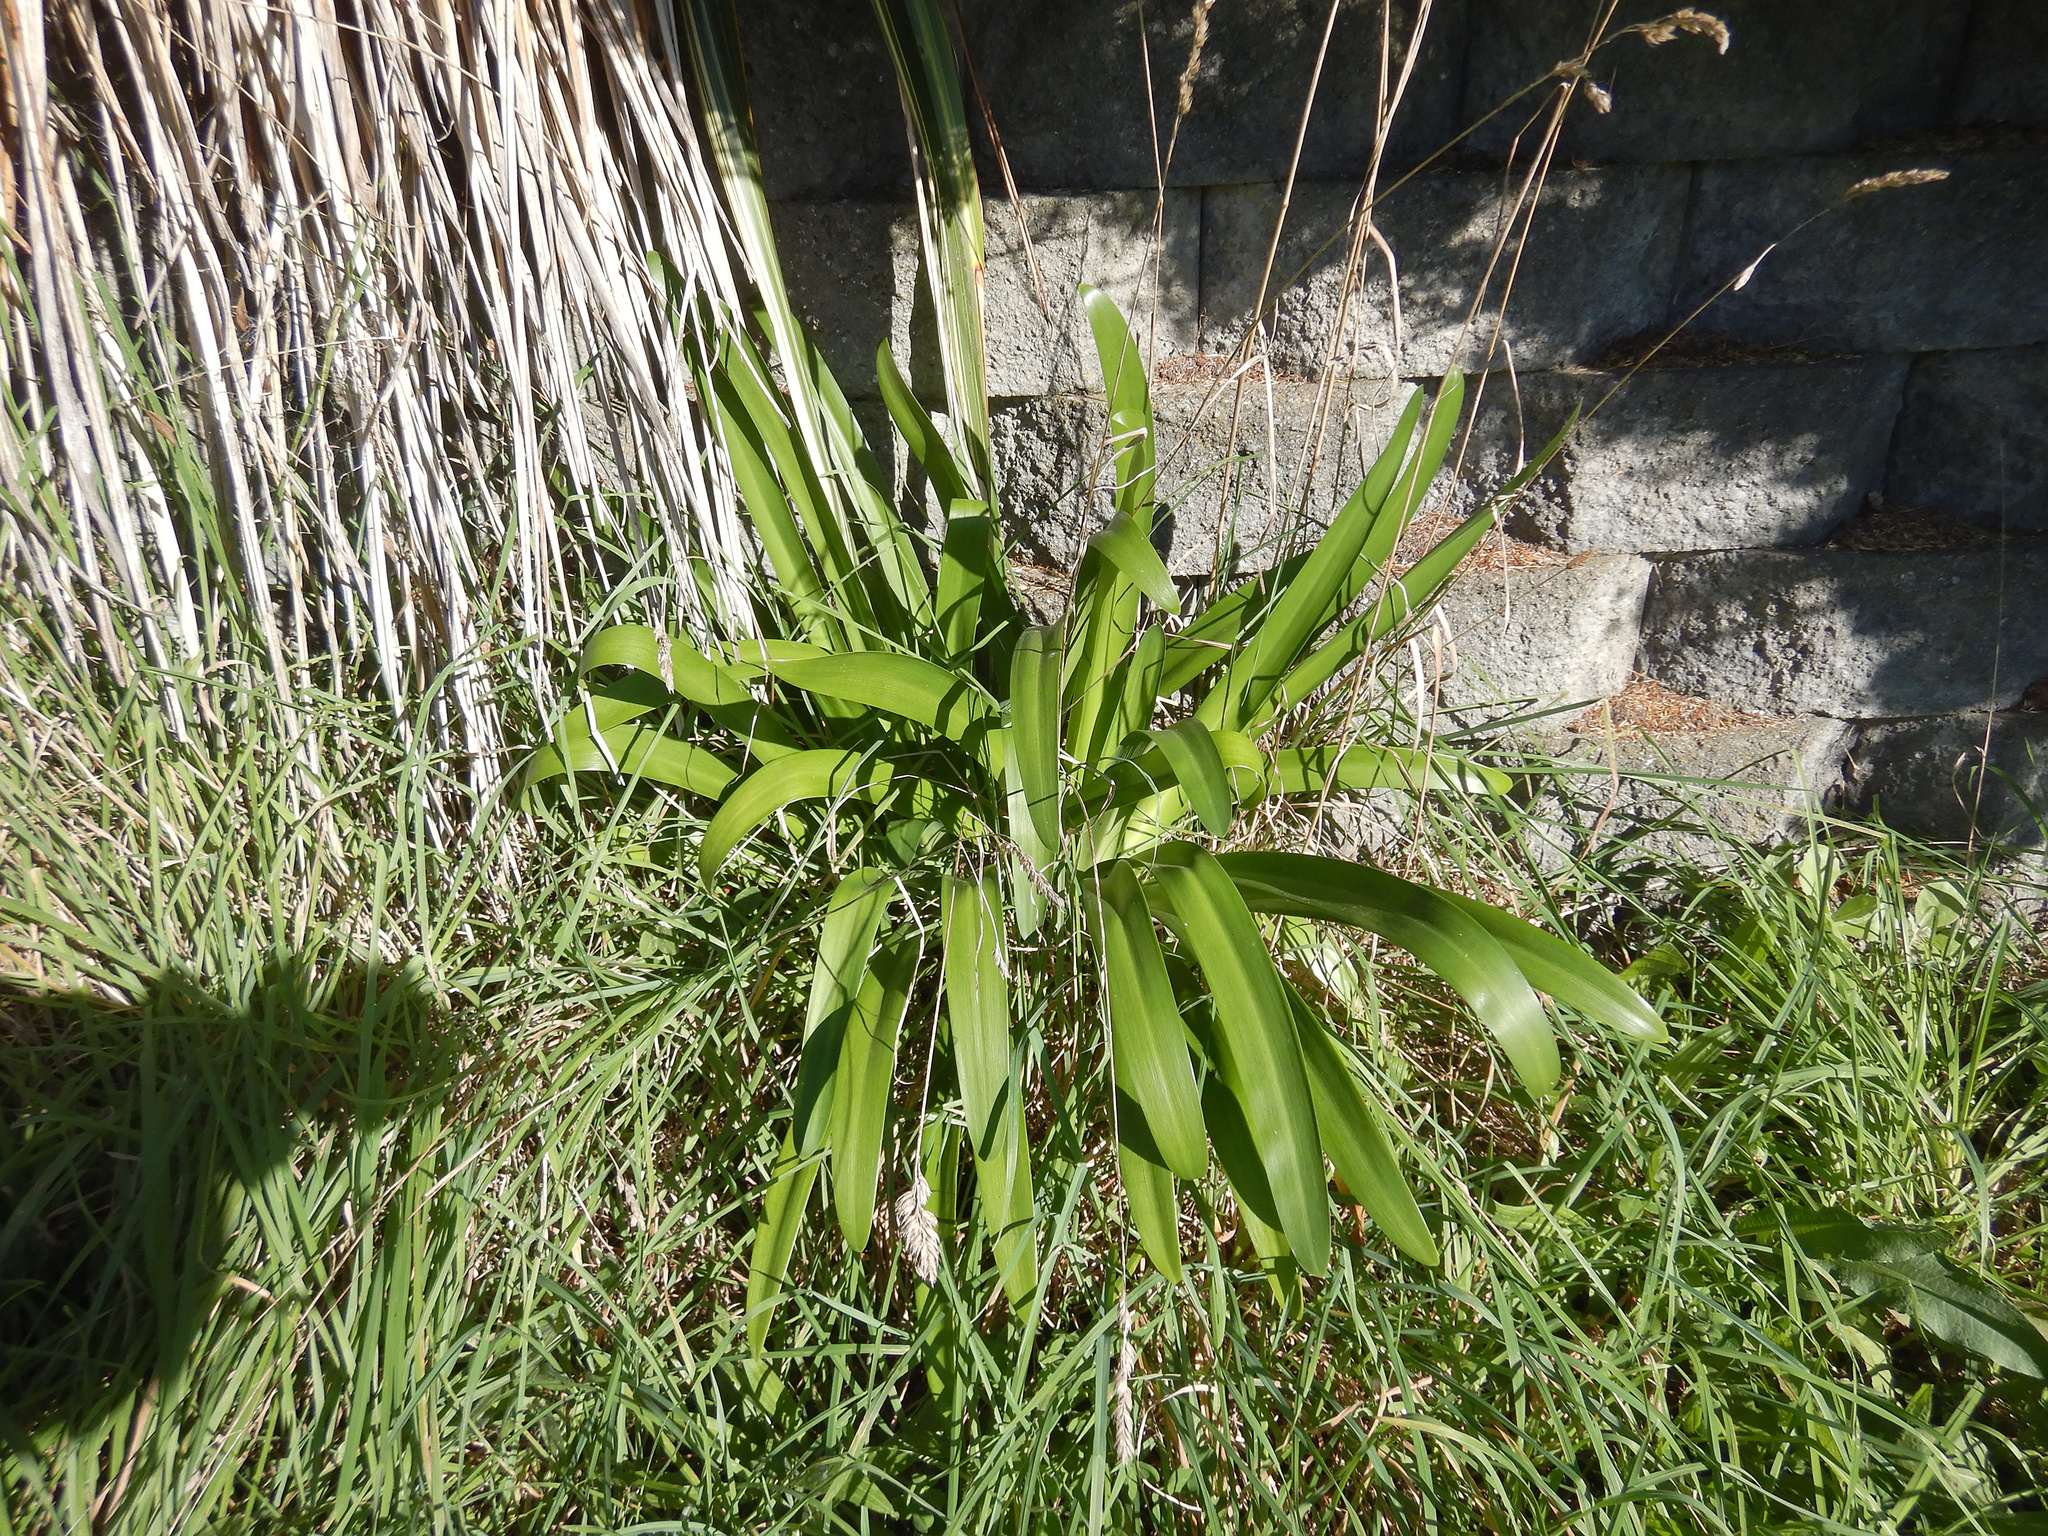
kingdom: Plantae
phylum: Tracheophyta
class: Liliopsida
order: Asparagales
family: Amaryllidaceae
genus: Agapanthus
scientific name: Agapanthus praecox
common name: African-lily
